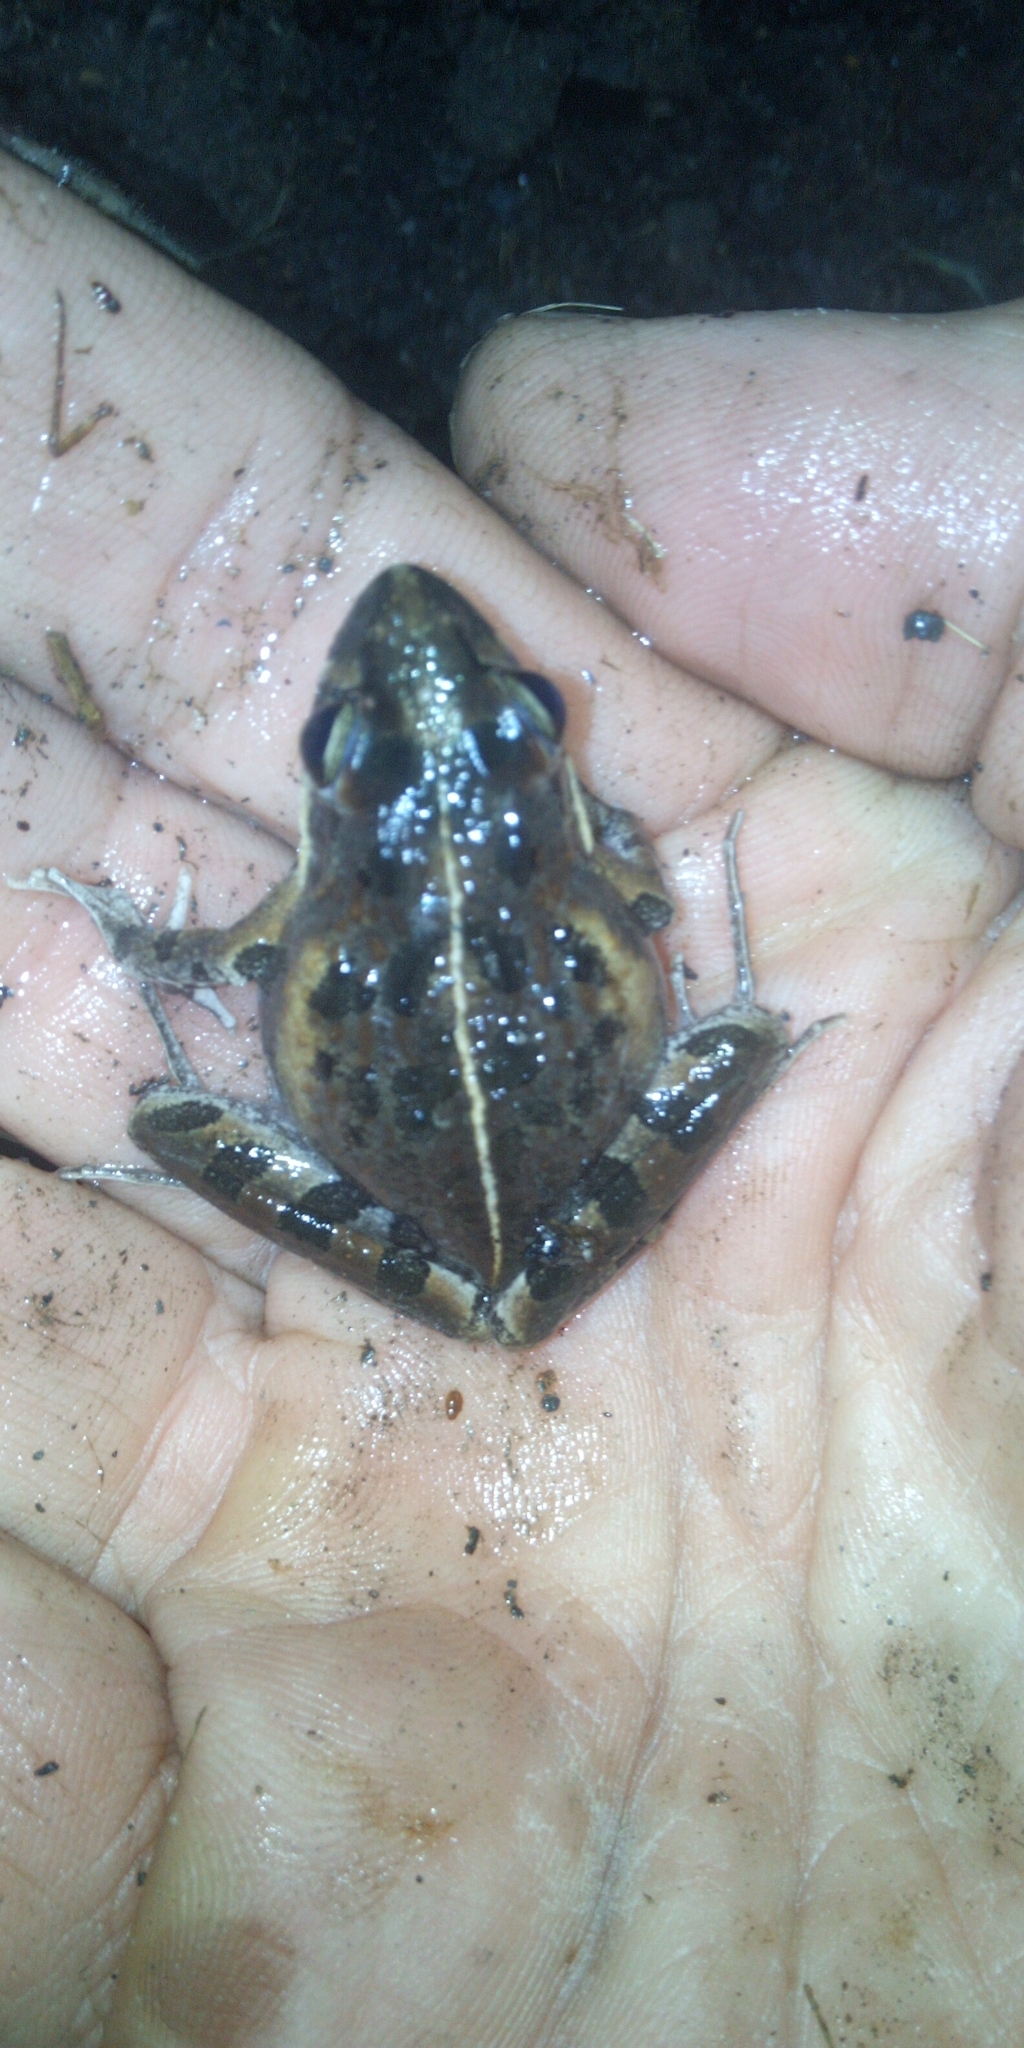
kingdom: Animalia
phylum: Chordata
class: Amphibia
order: Anura
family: Pyxicephalidae
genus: Strongylopus
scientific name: Strongylopus grayii
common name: Gray's stream frog
